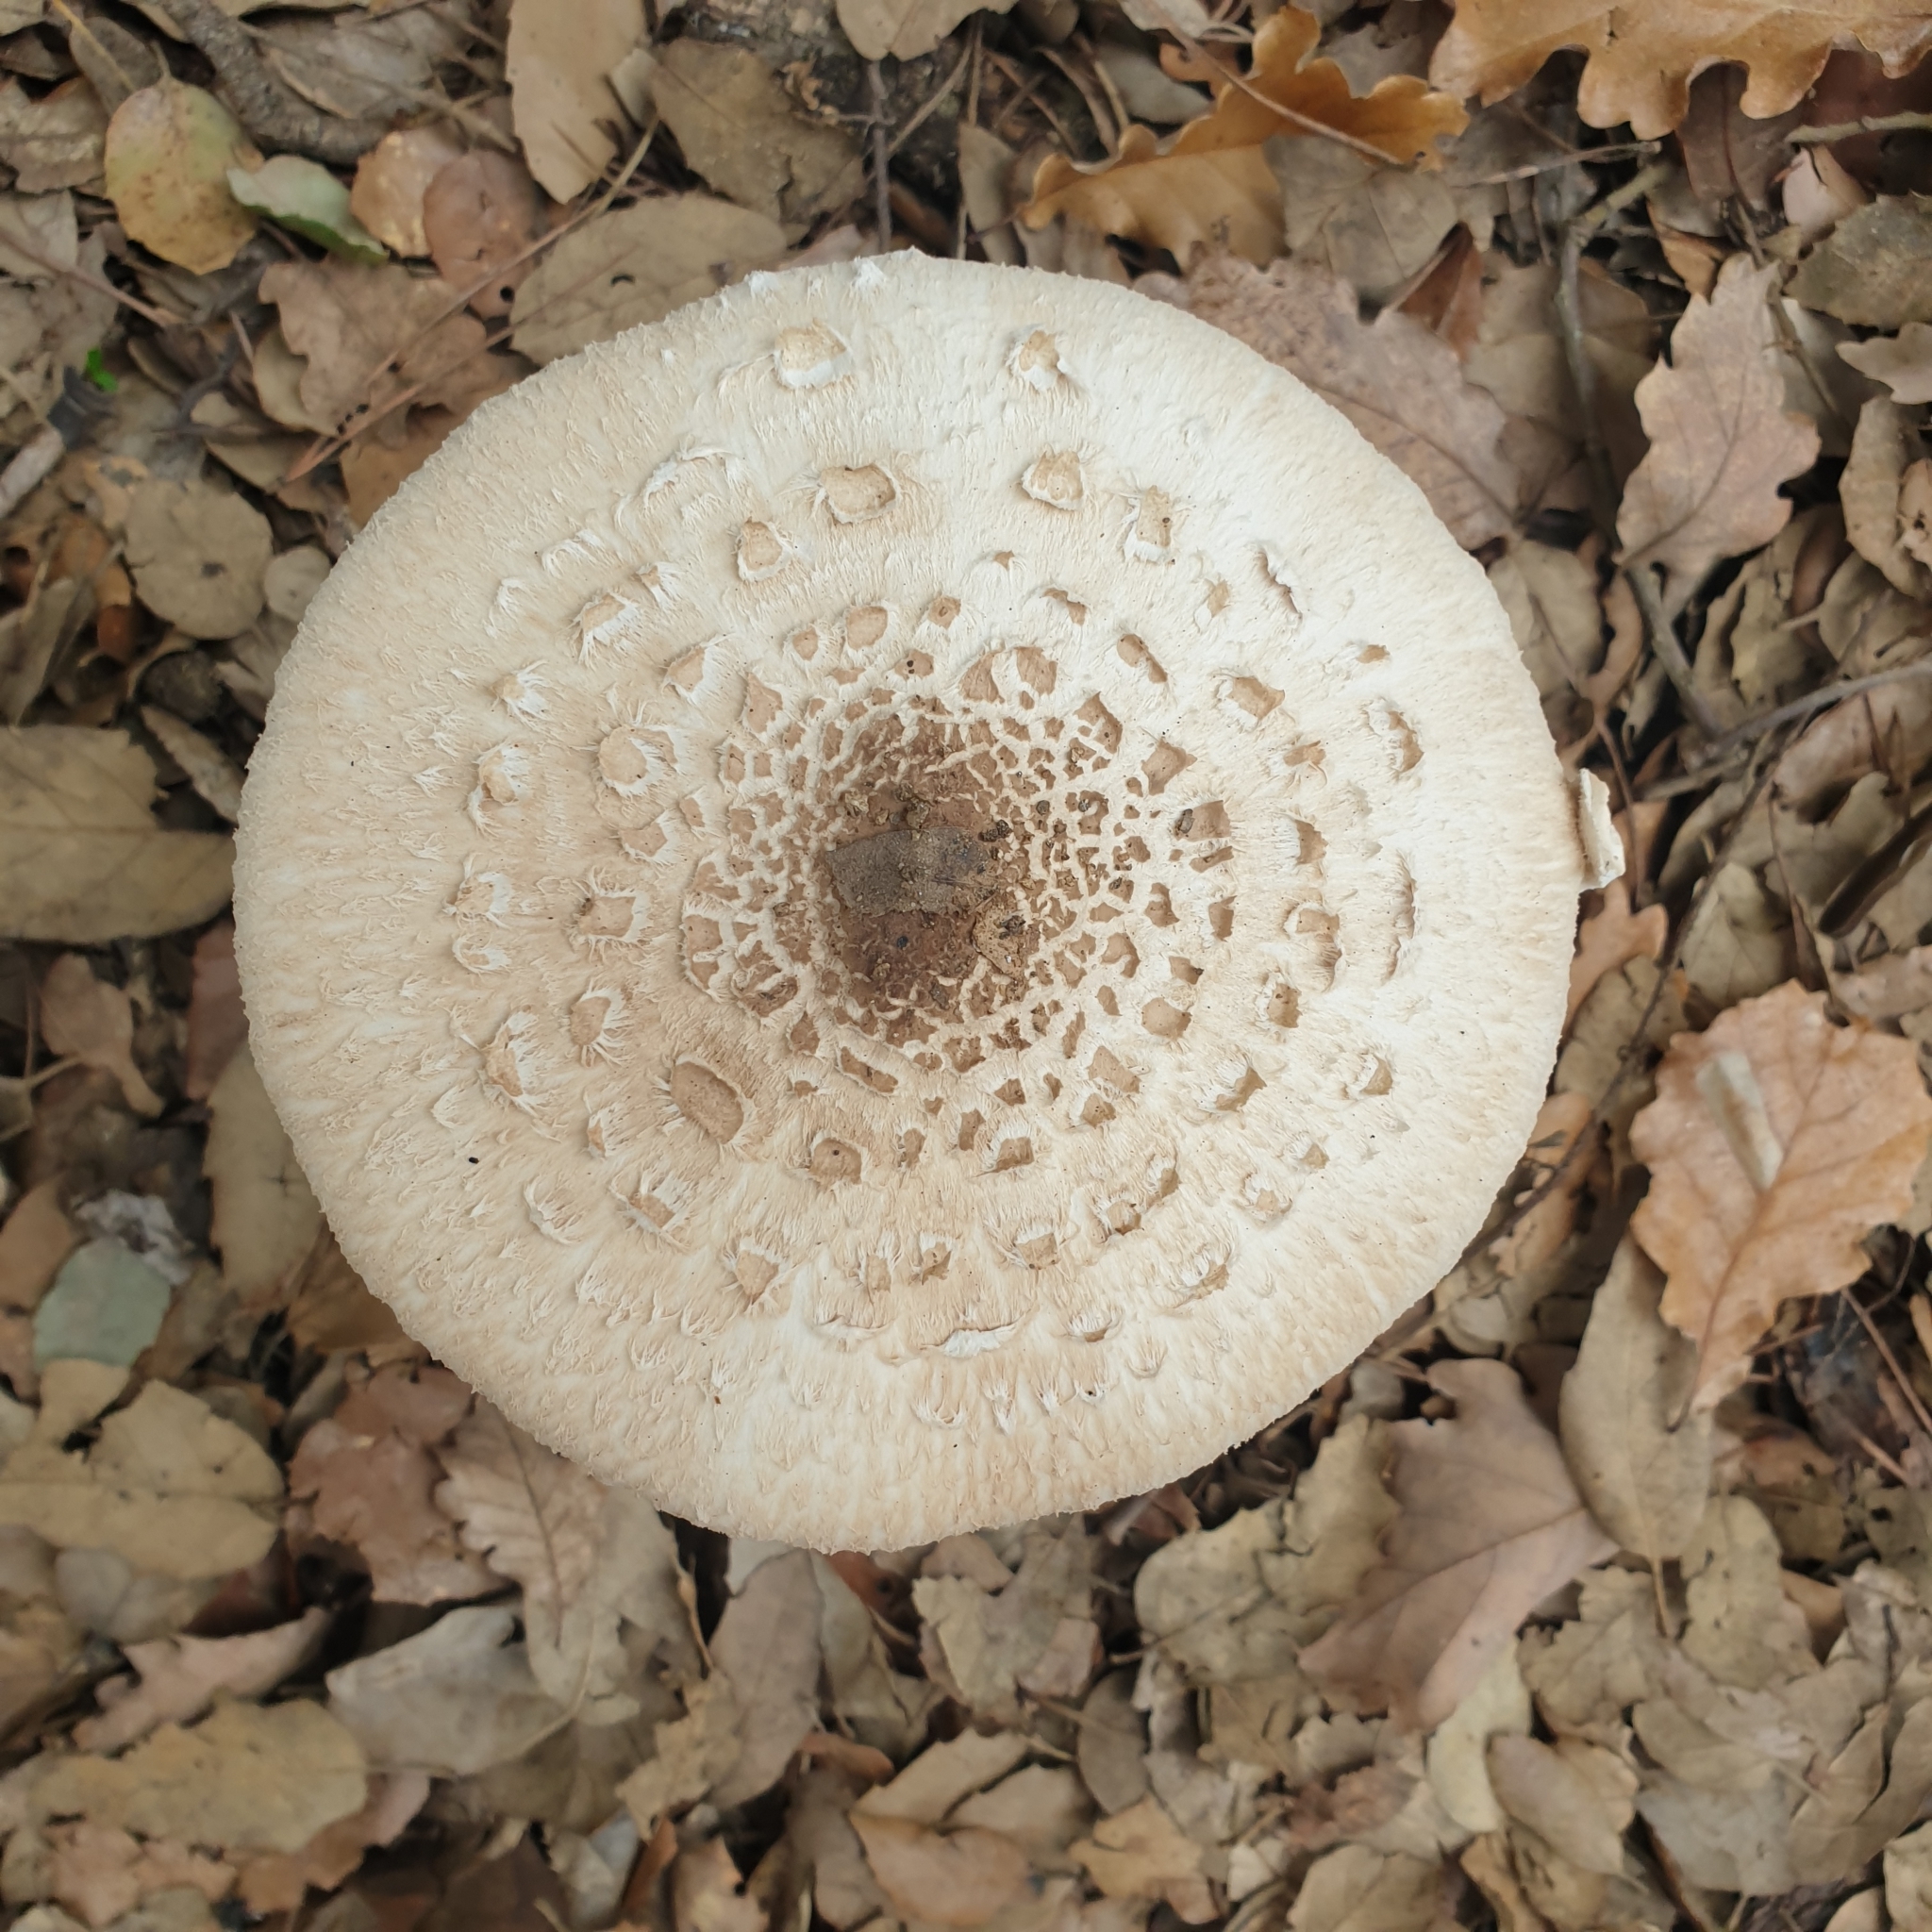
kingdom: Fungi
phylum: Basidiomycota
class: Agaricomycetes
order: Agaricales
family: Agaricaceae
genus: Macrolepiota
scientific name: Macrolepiota procera
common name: Parasol
